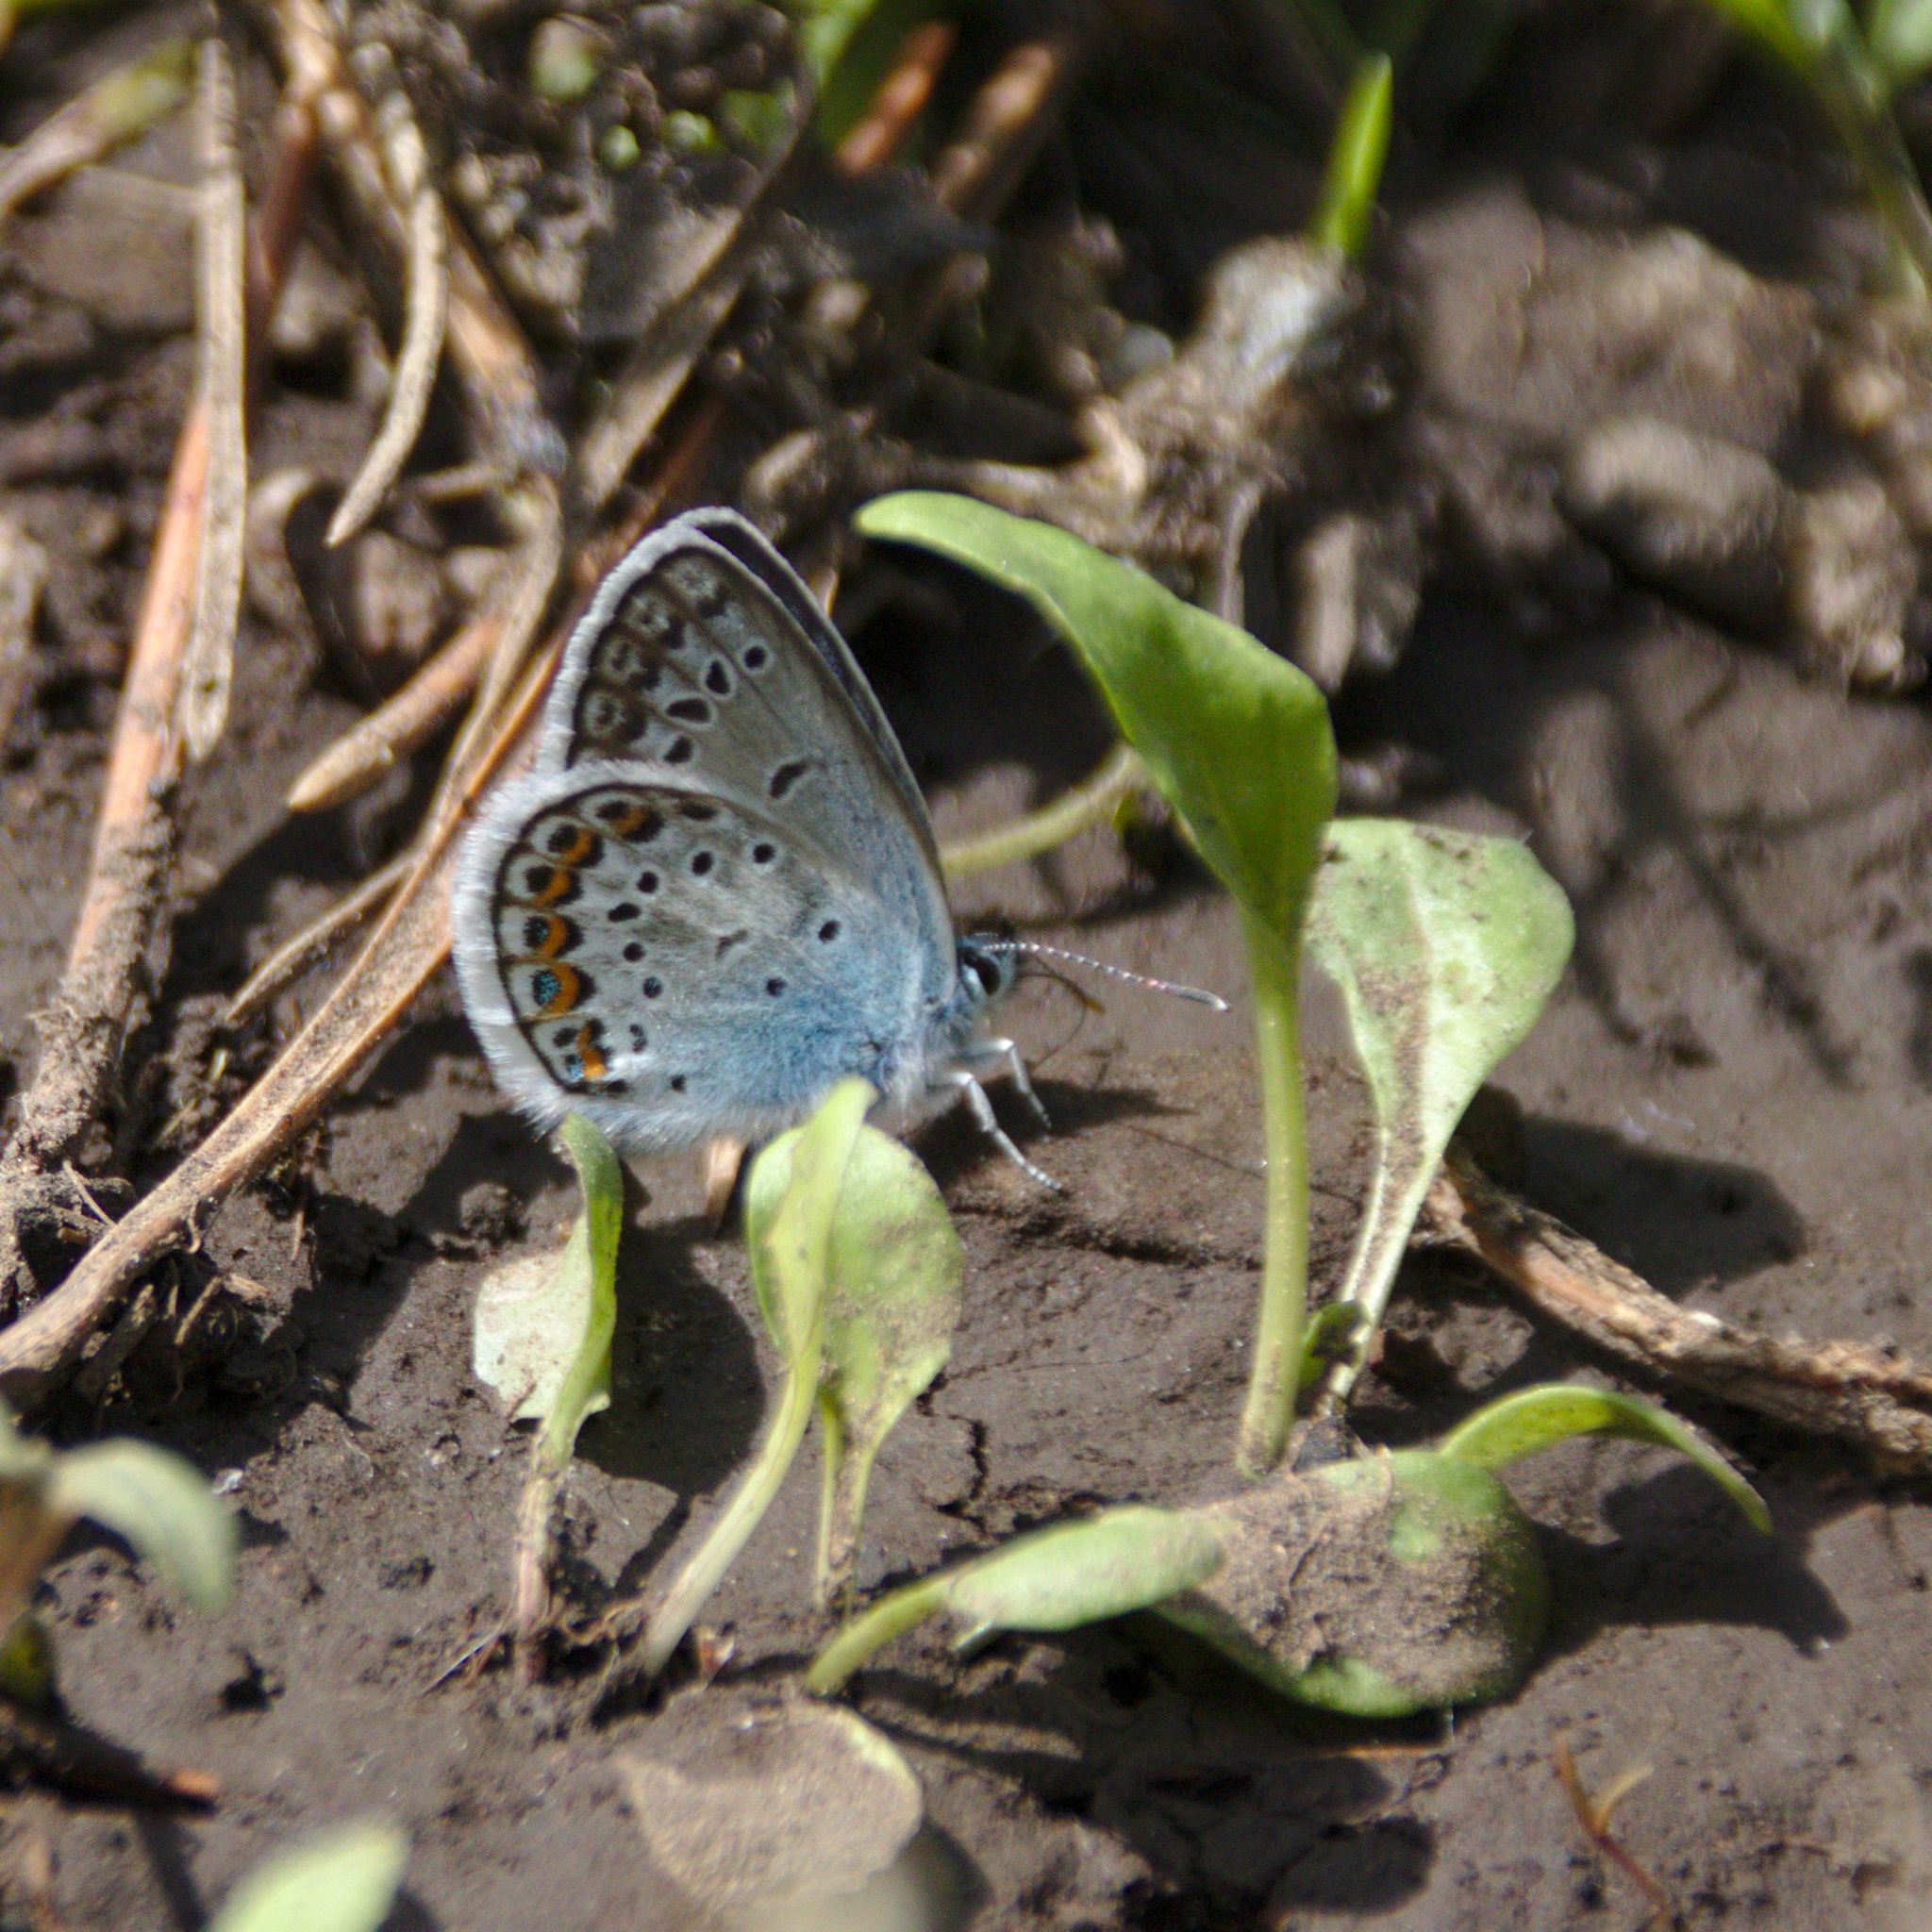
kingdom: Animalia
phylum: Arthropoda
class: Insecta
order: Lepidoptera
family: Lycaenidae
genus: Plebejus
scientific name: Plebejus argus
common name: Silver-studded blue
